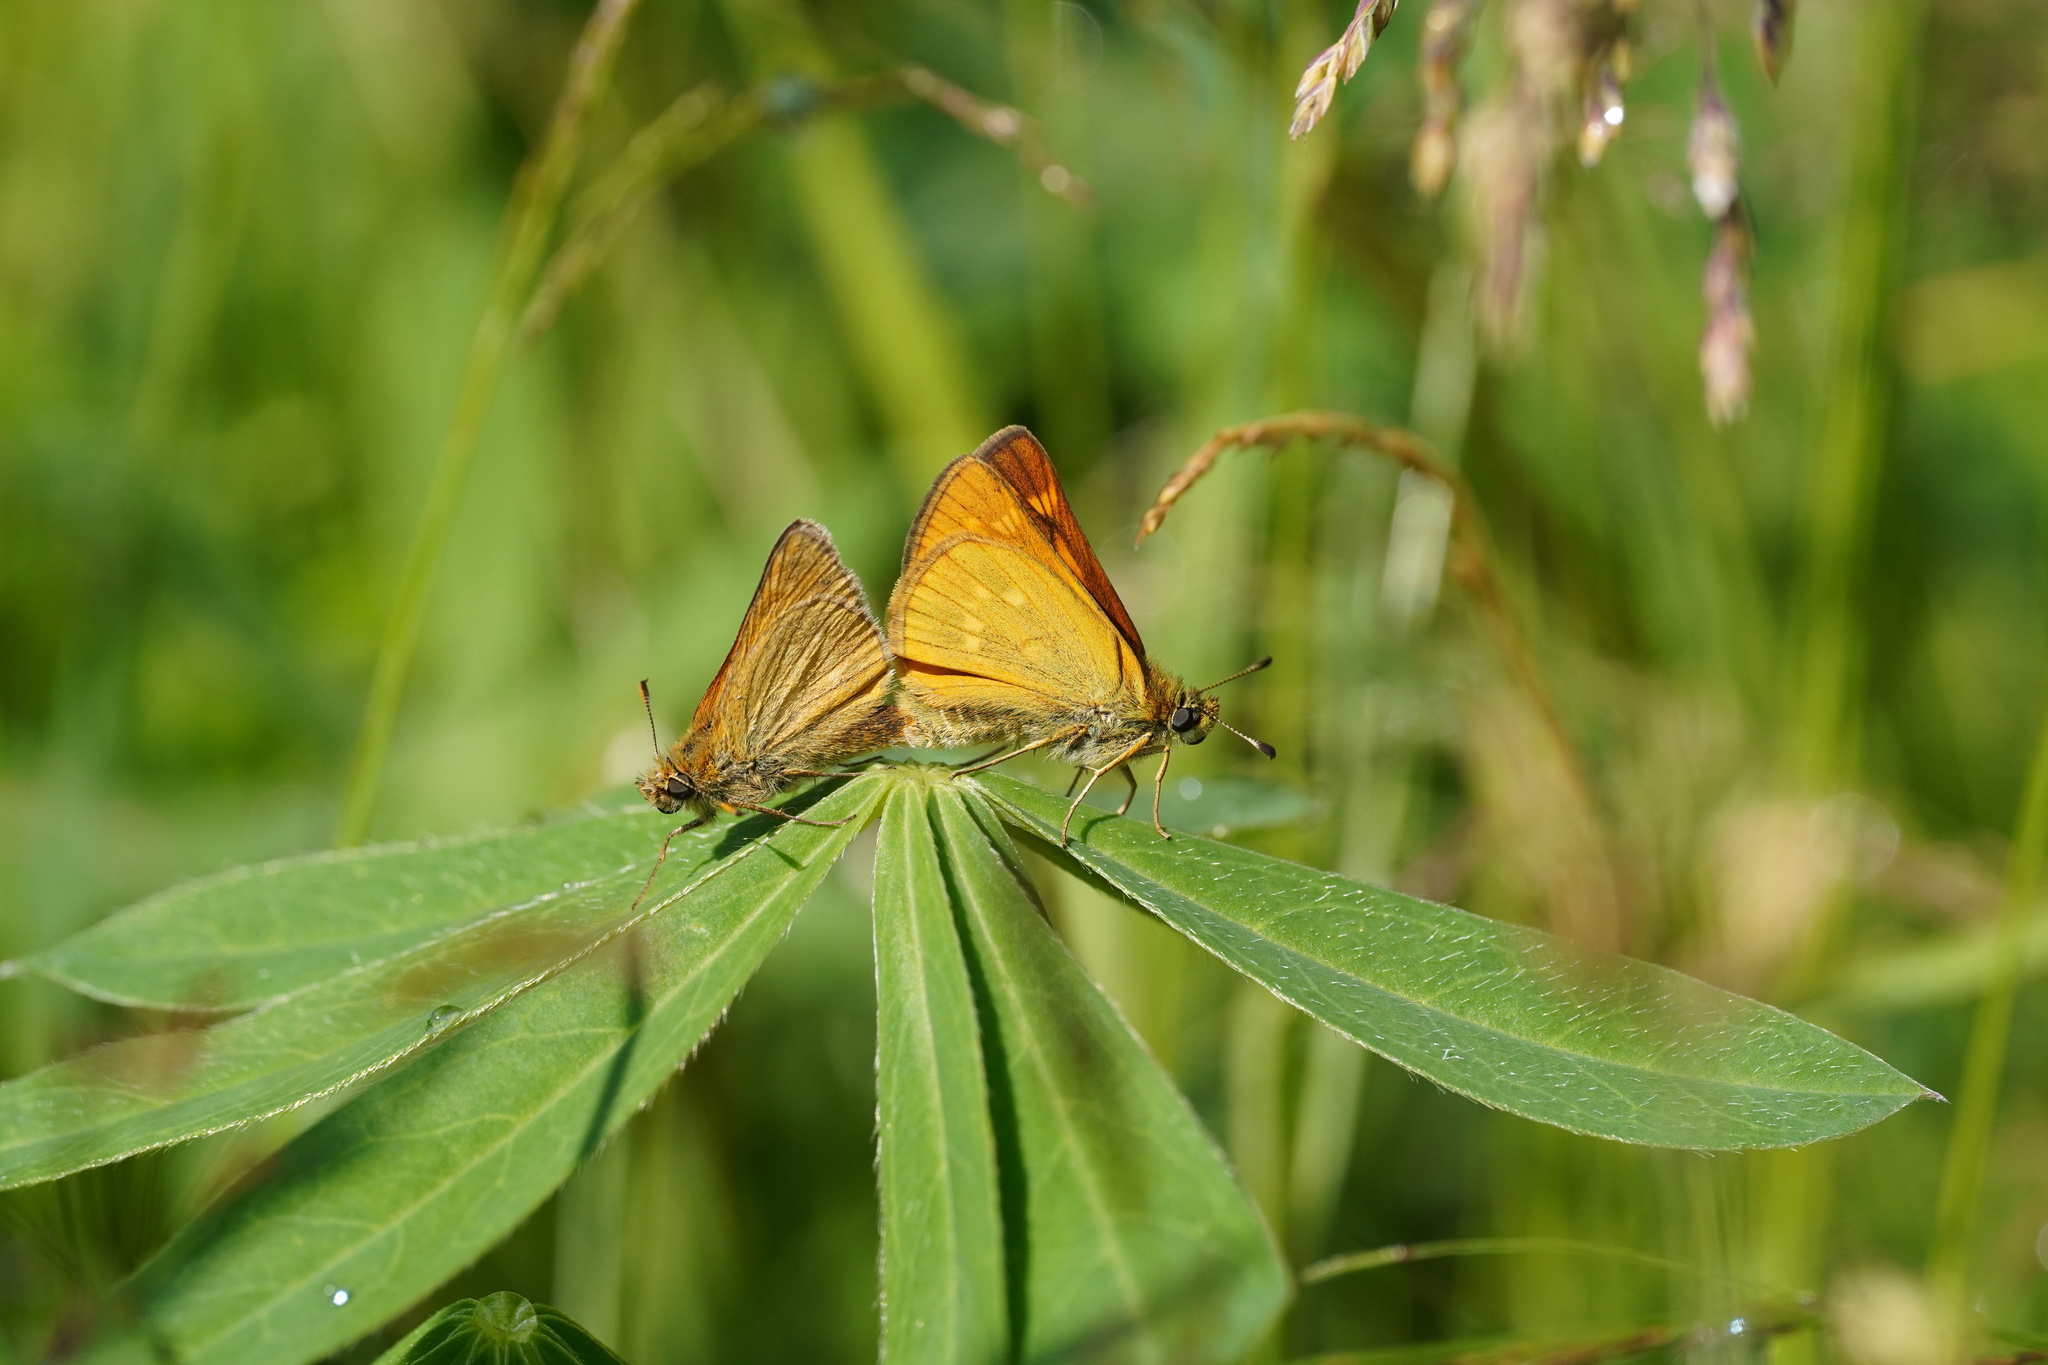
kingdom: Animalia
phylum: Arthropoda
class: Insecta
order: Lepidoptera
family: Hesperiidae
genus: Ochlodes
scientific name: Ochlodes venata
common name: Large skipper
